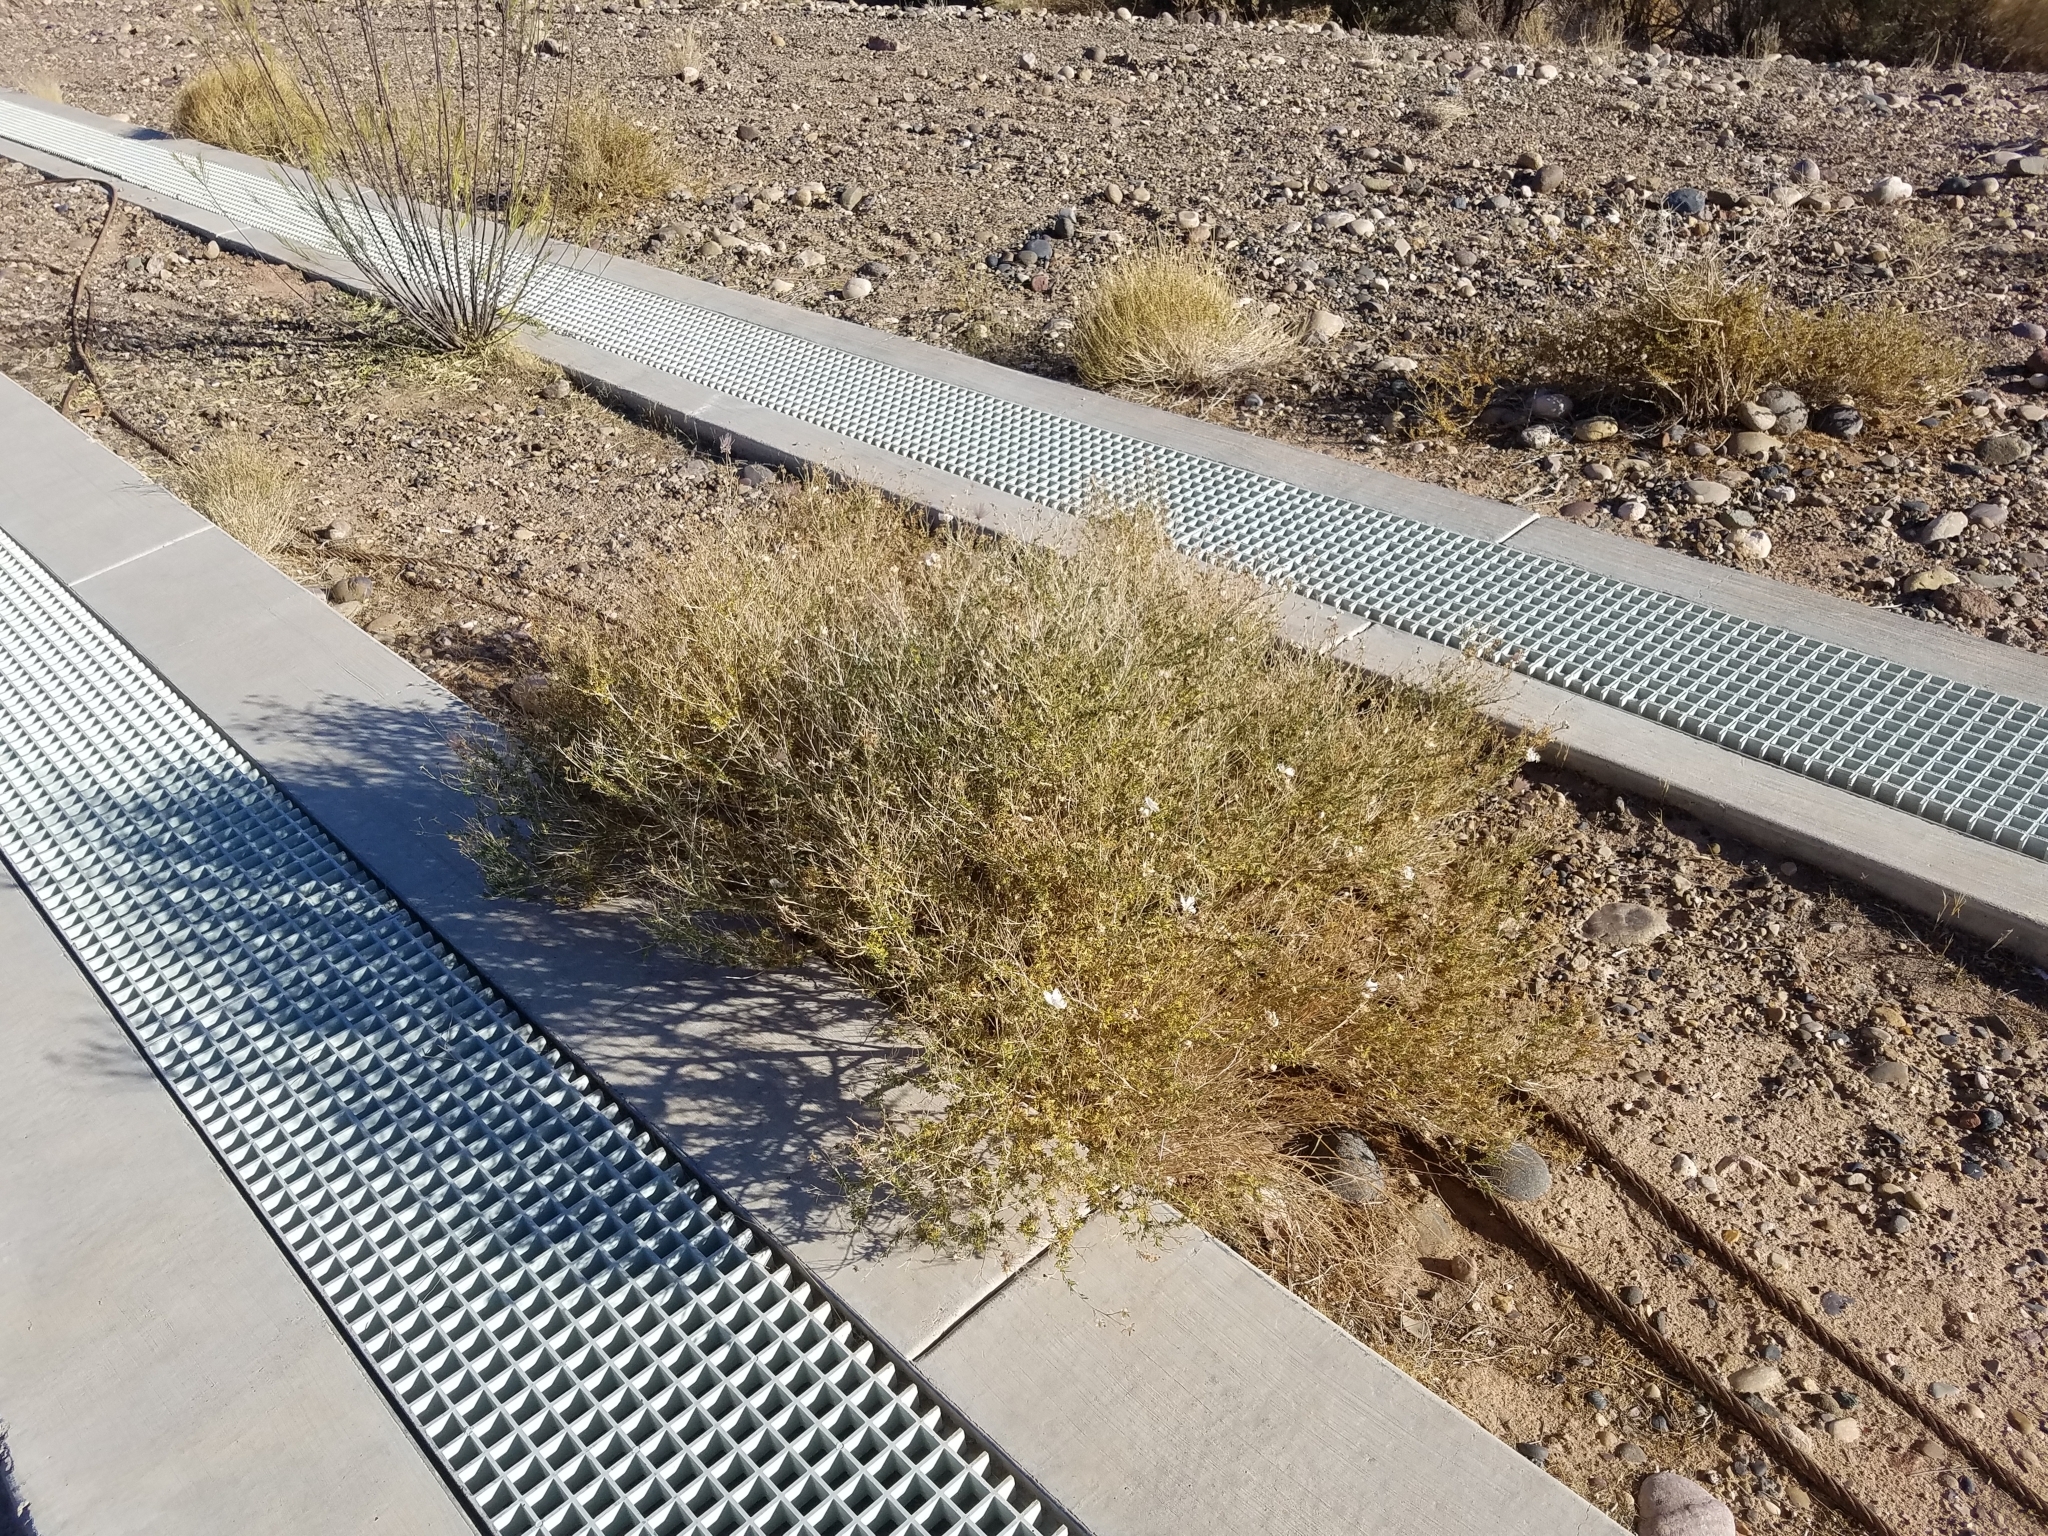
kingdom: Plantae
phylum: Tracheophyta
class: Magnoliopsida
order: Rosales
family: Rosaceae
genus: Fallugia
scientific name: Fallugia paradoxa
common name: Apache-plume
